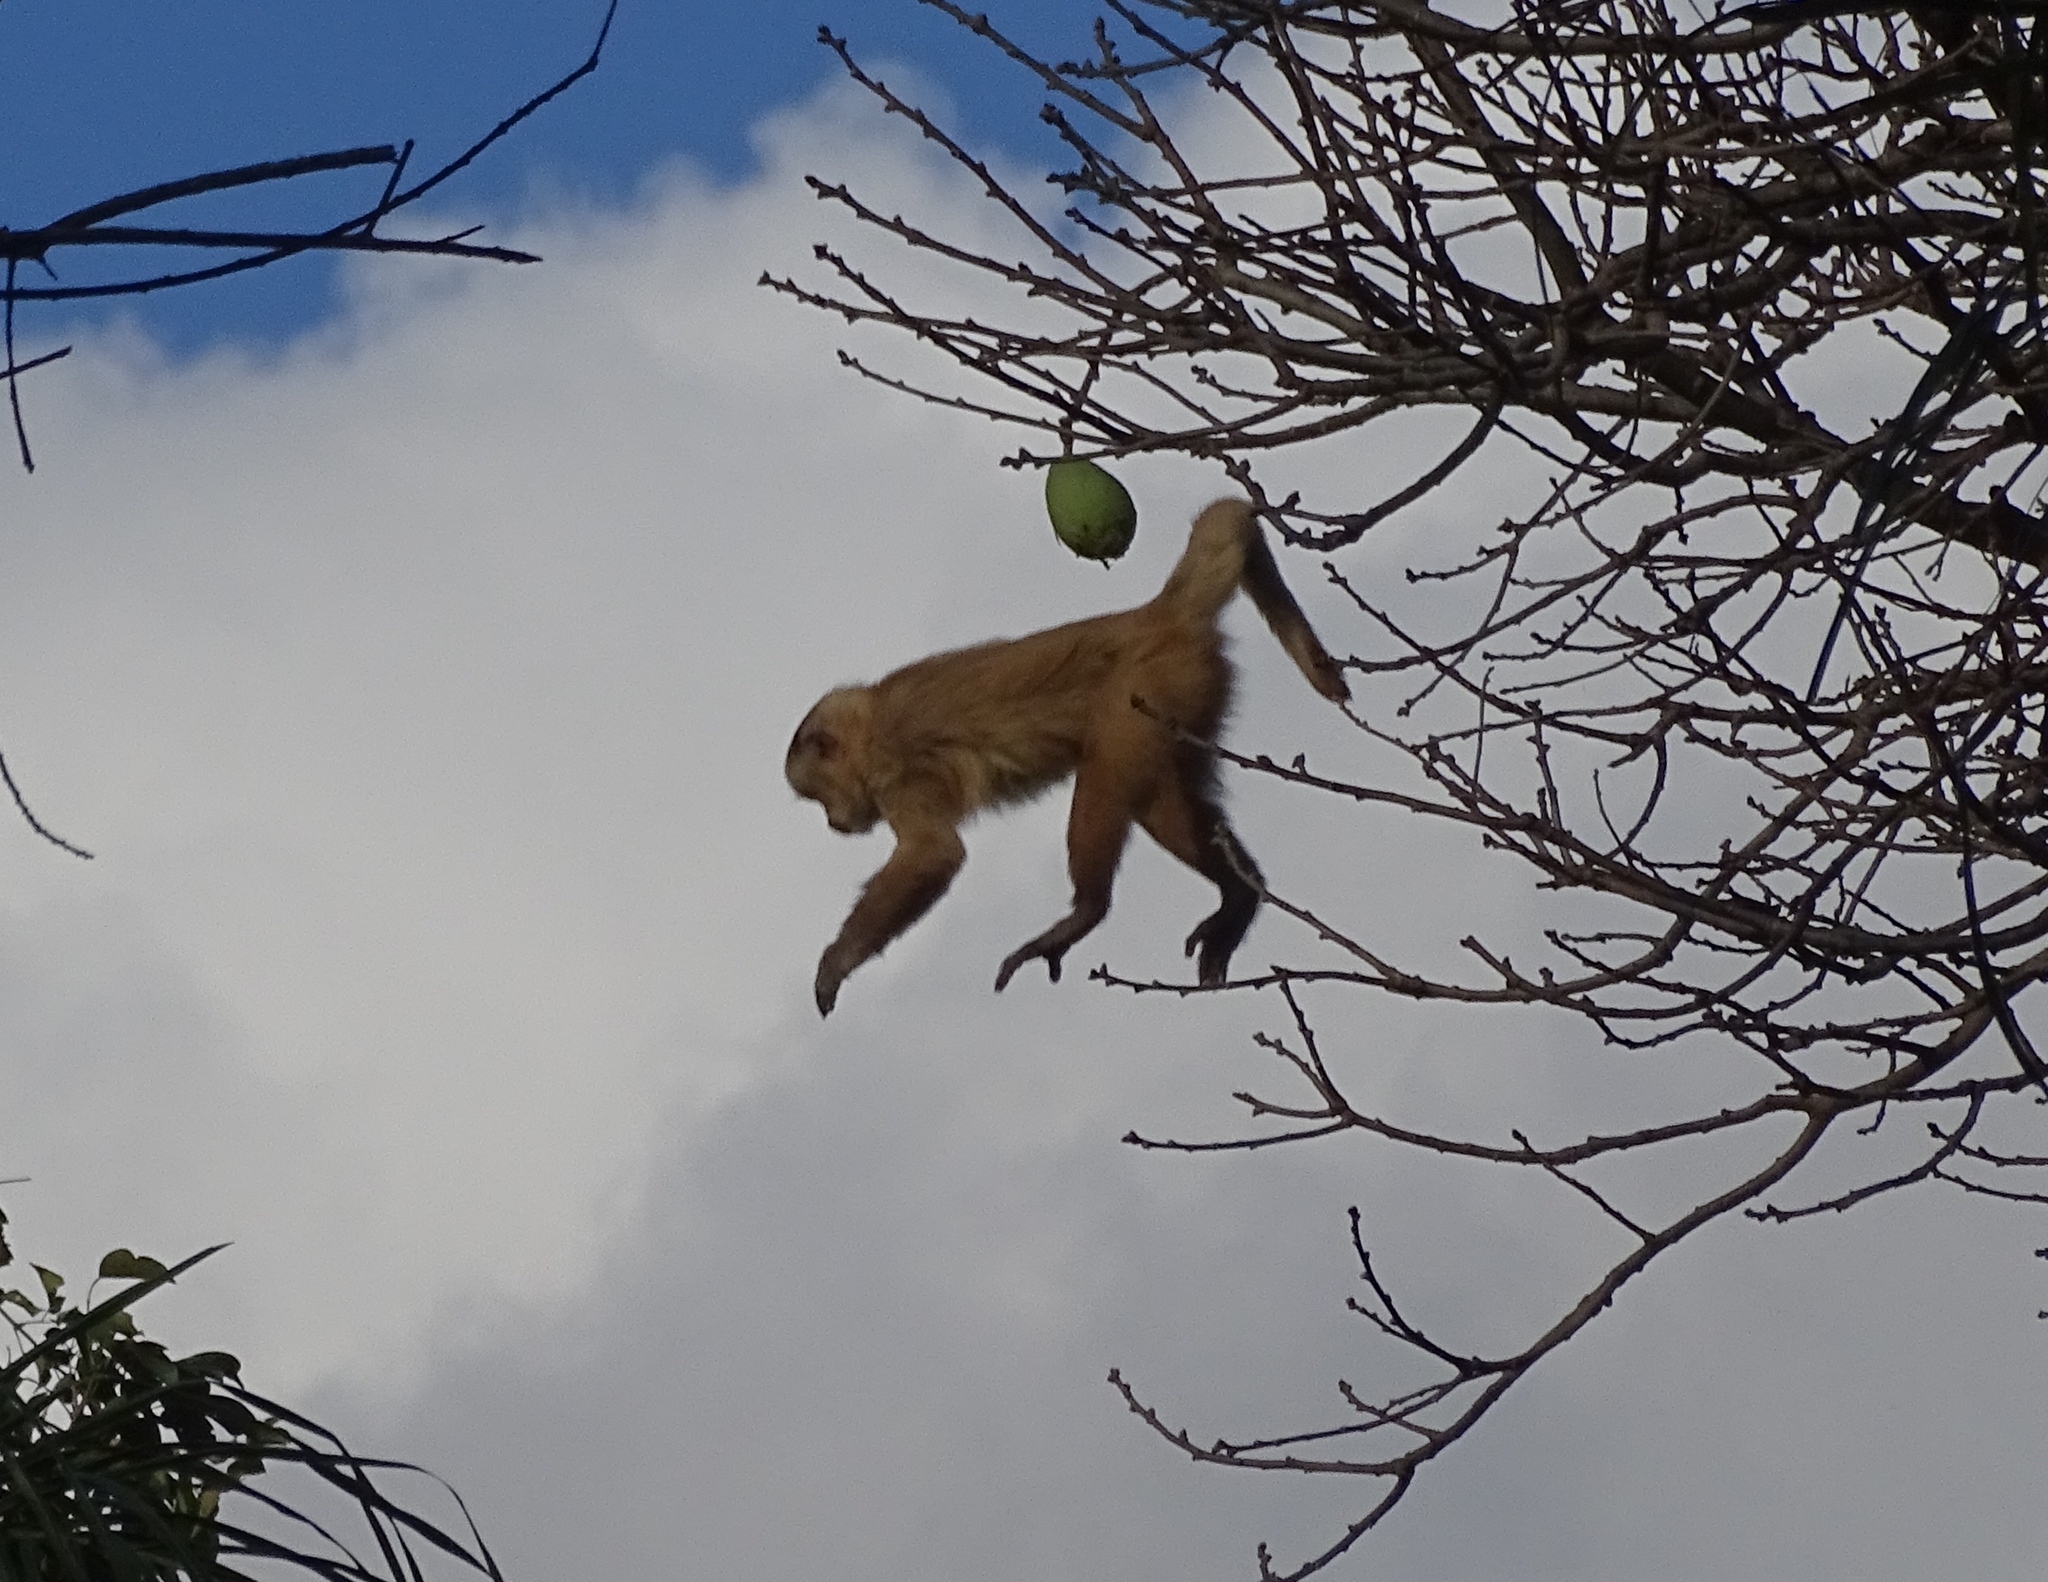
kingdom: Animalia
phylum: Chordata
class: Mammalia
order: Primates
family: Cebidae
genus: Sapajus
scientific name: Sapajus apella
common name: Tufted capuchin
